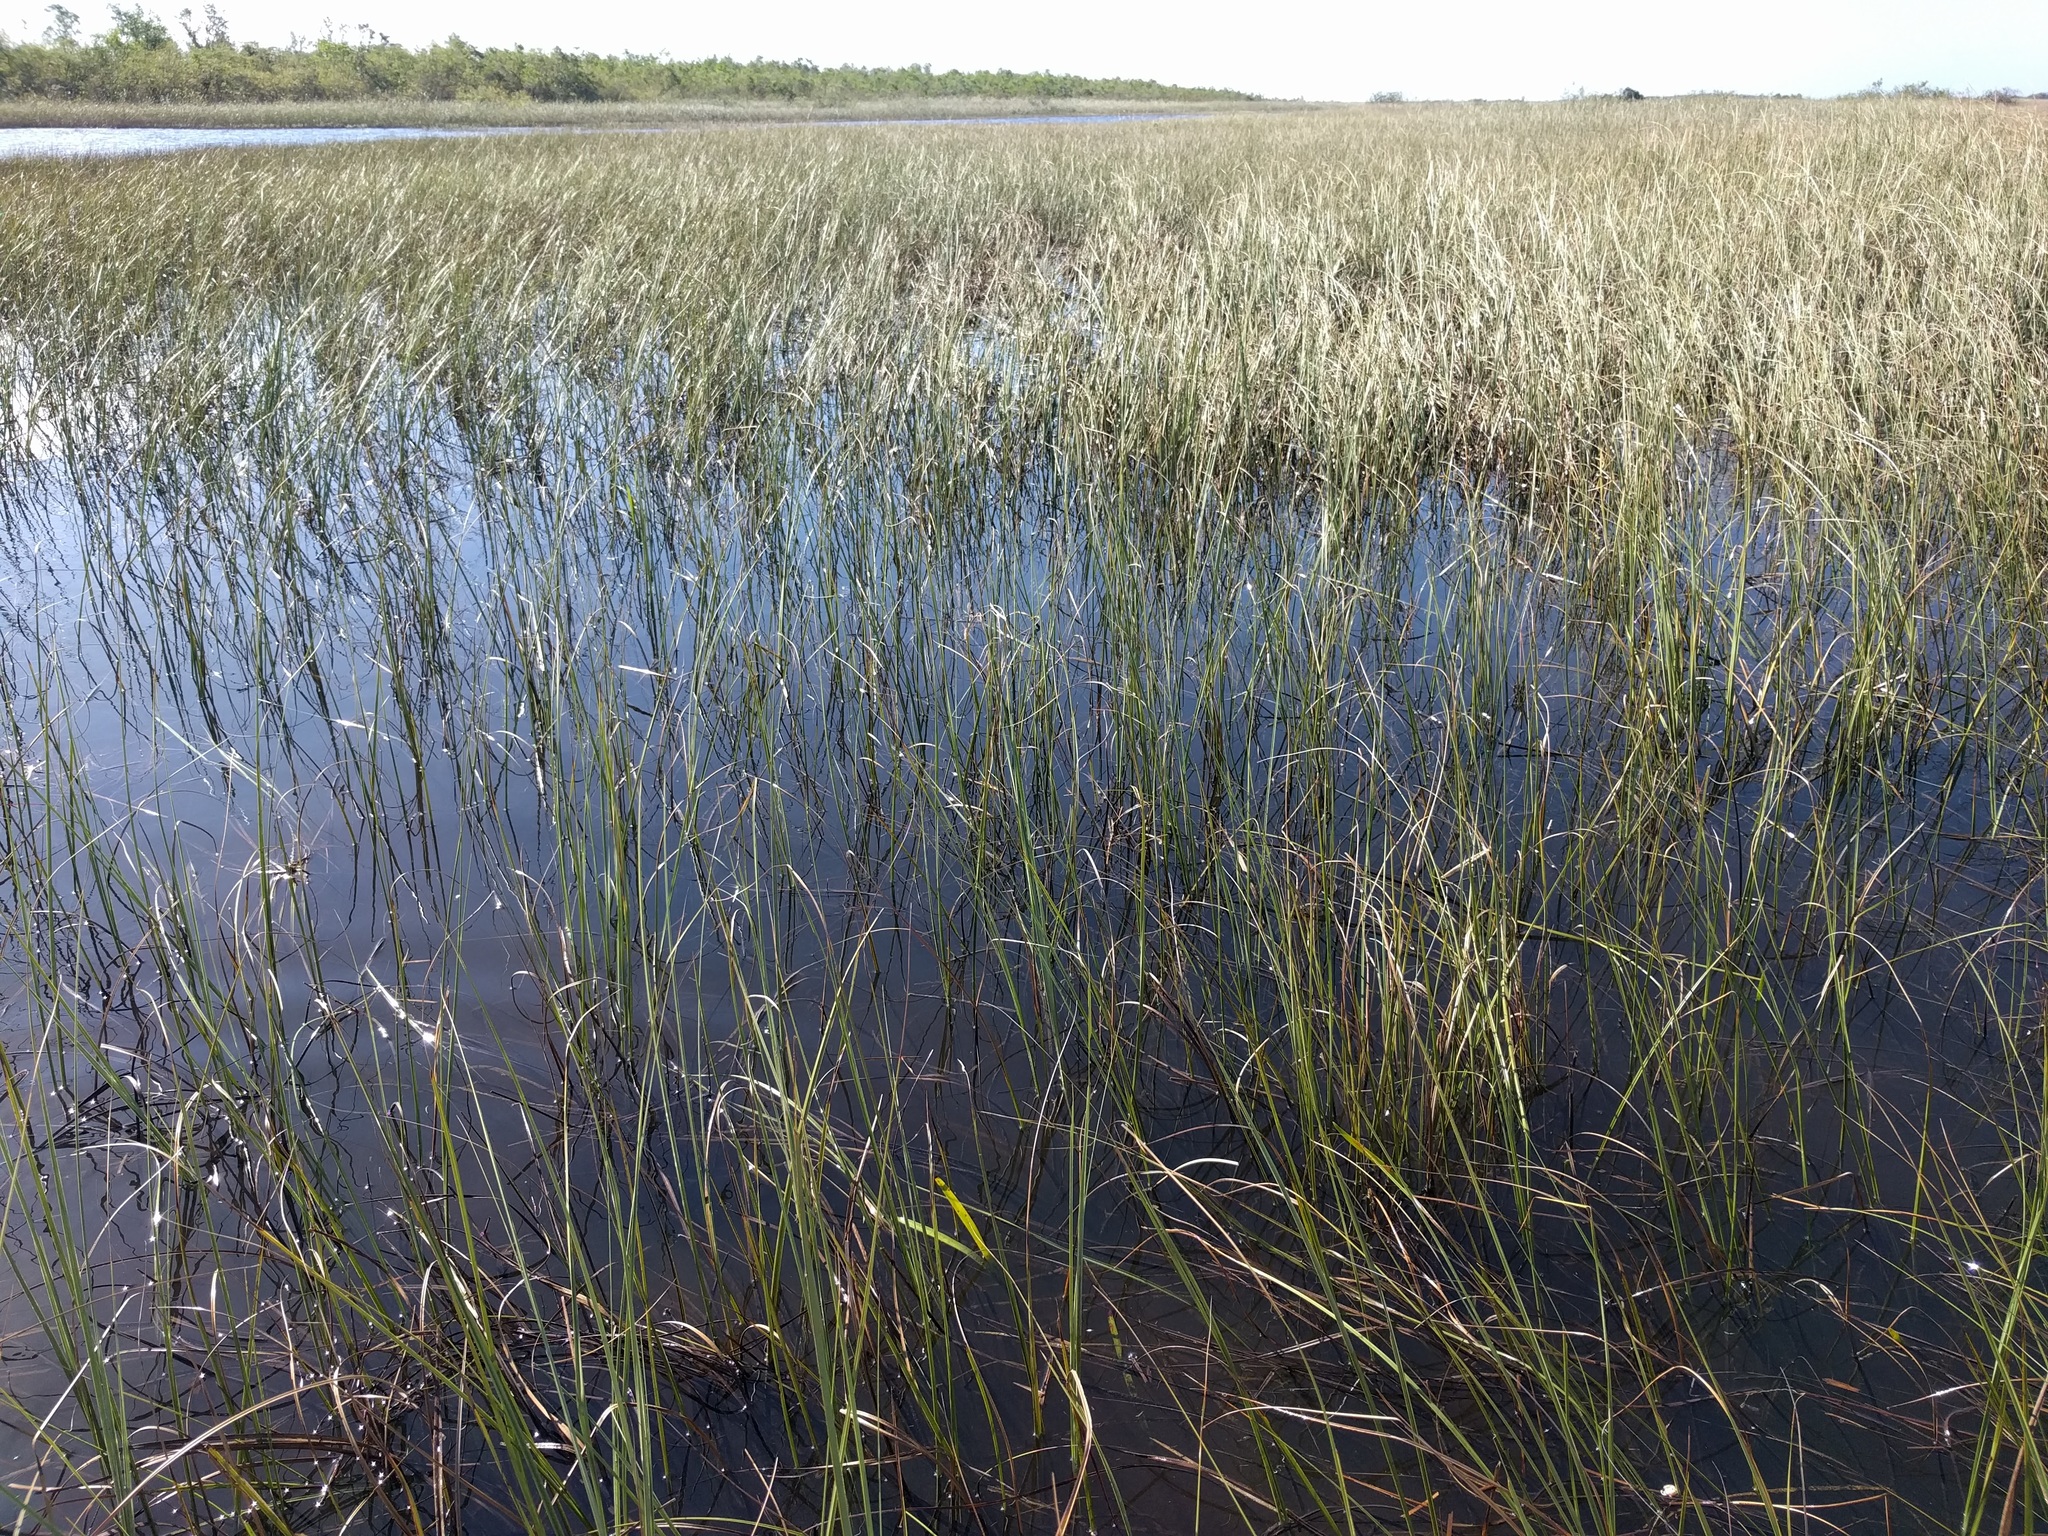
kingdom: Plantae
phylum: Tracheophyta
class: Liliopsida
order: Poales
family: Cyperaceae
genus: Cladium
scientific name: Cladium mariscus
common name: Great fen-sedge
